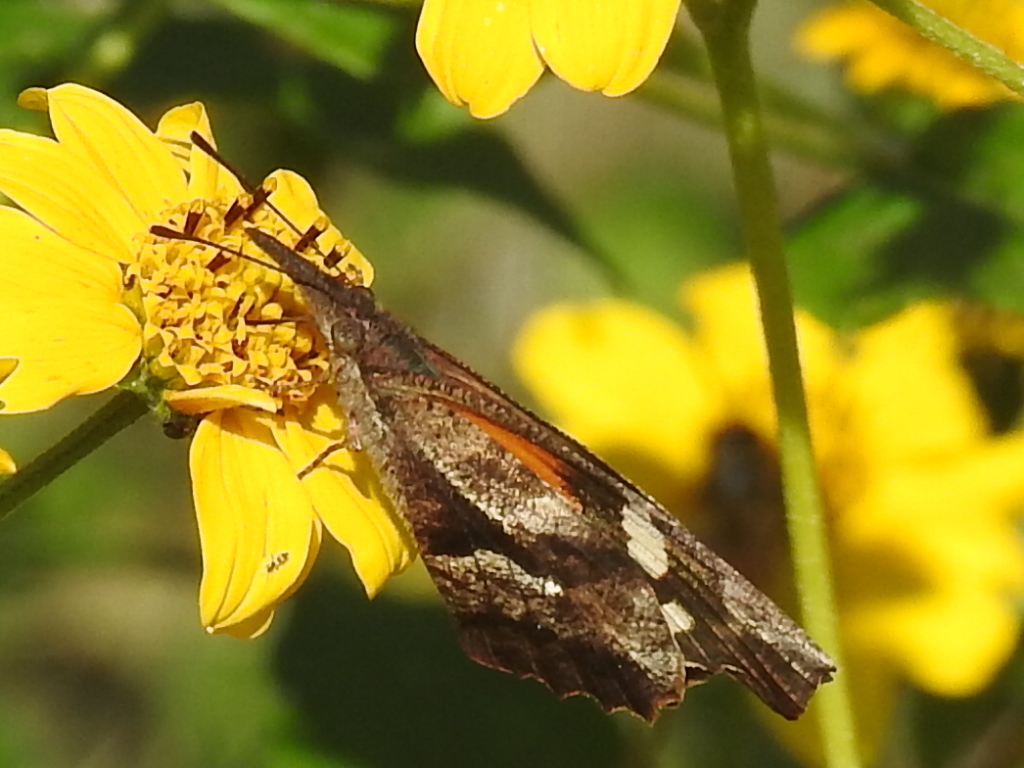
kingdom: Animalia
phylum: Arthropoda
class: Insecta
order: Lepidoptera
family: Nymphalidae
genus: Libytheana
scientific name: Libytheana carinenta
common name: American snout
